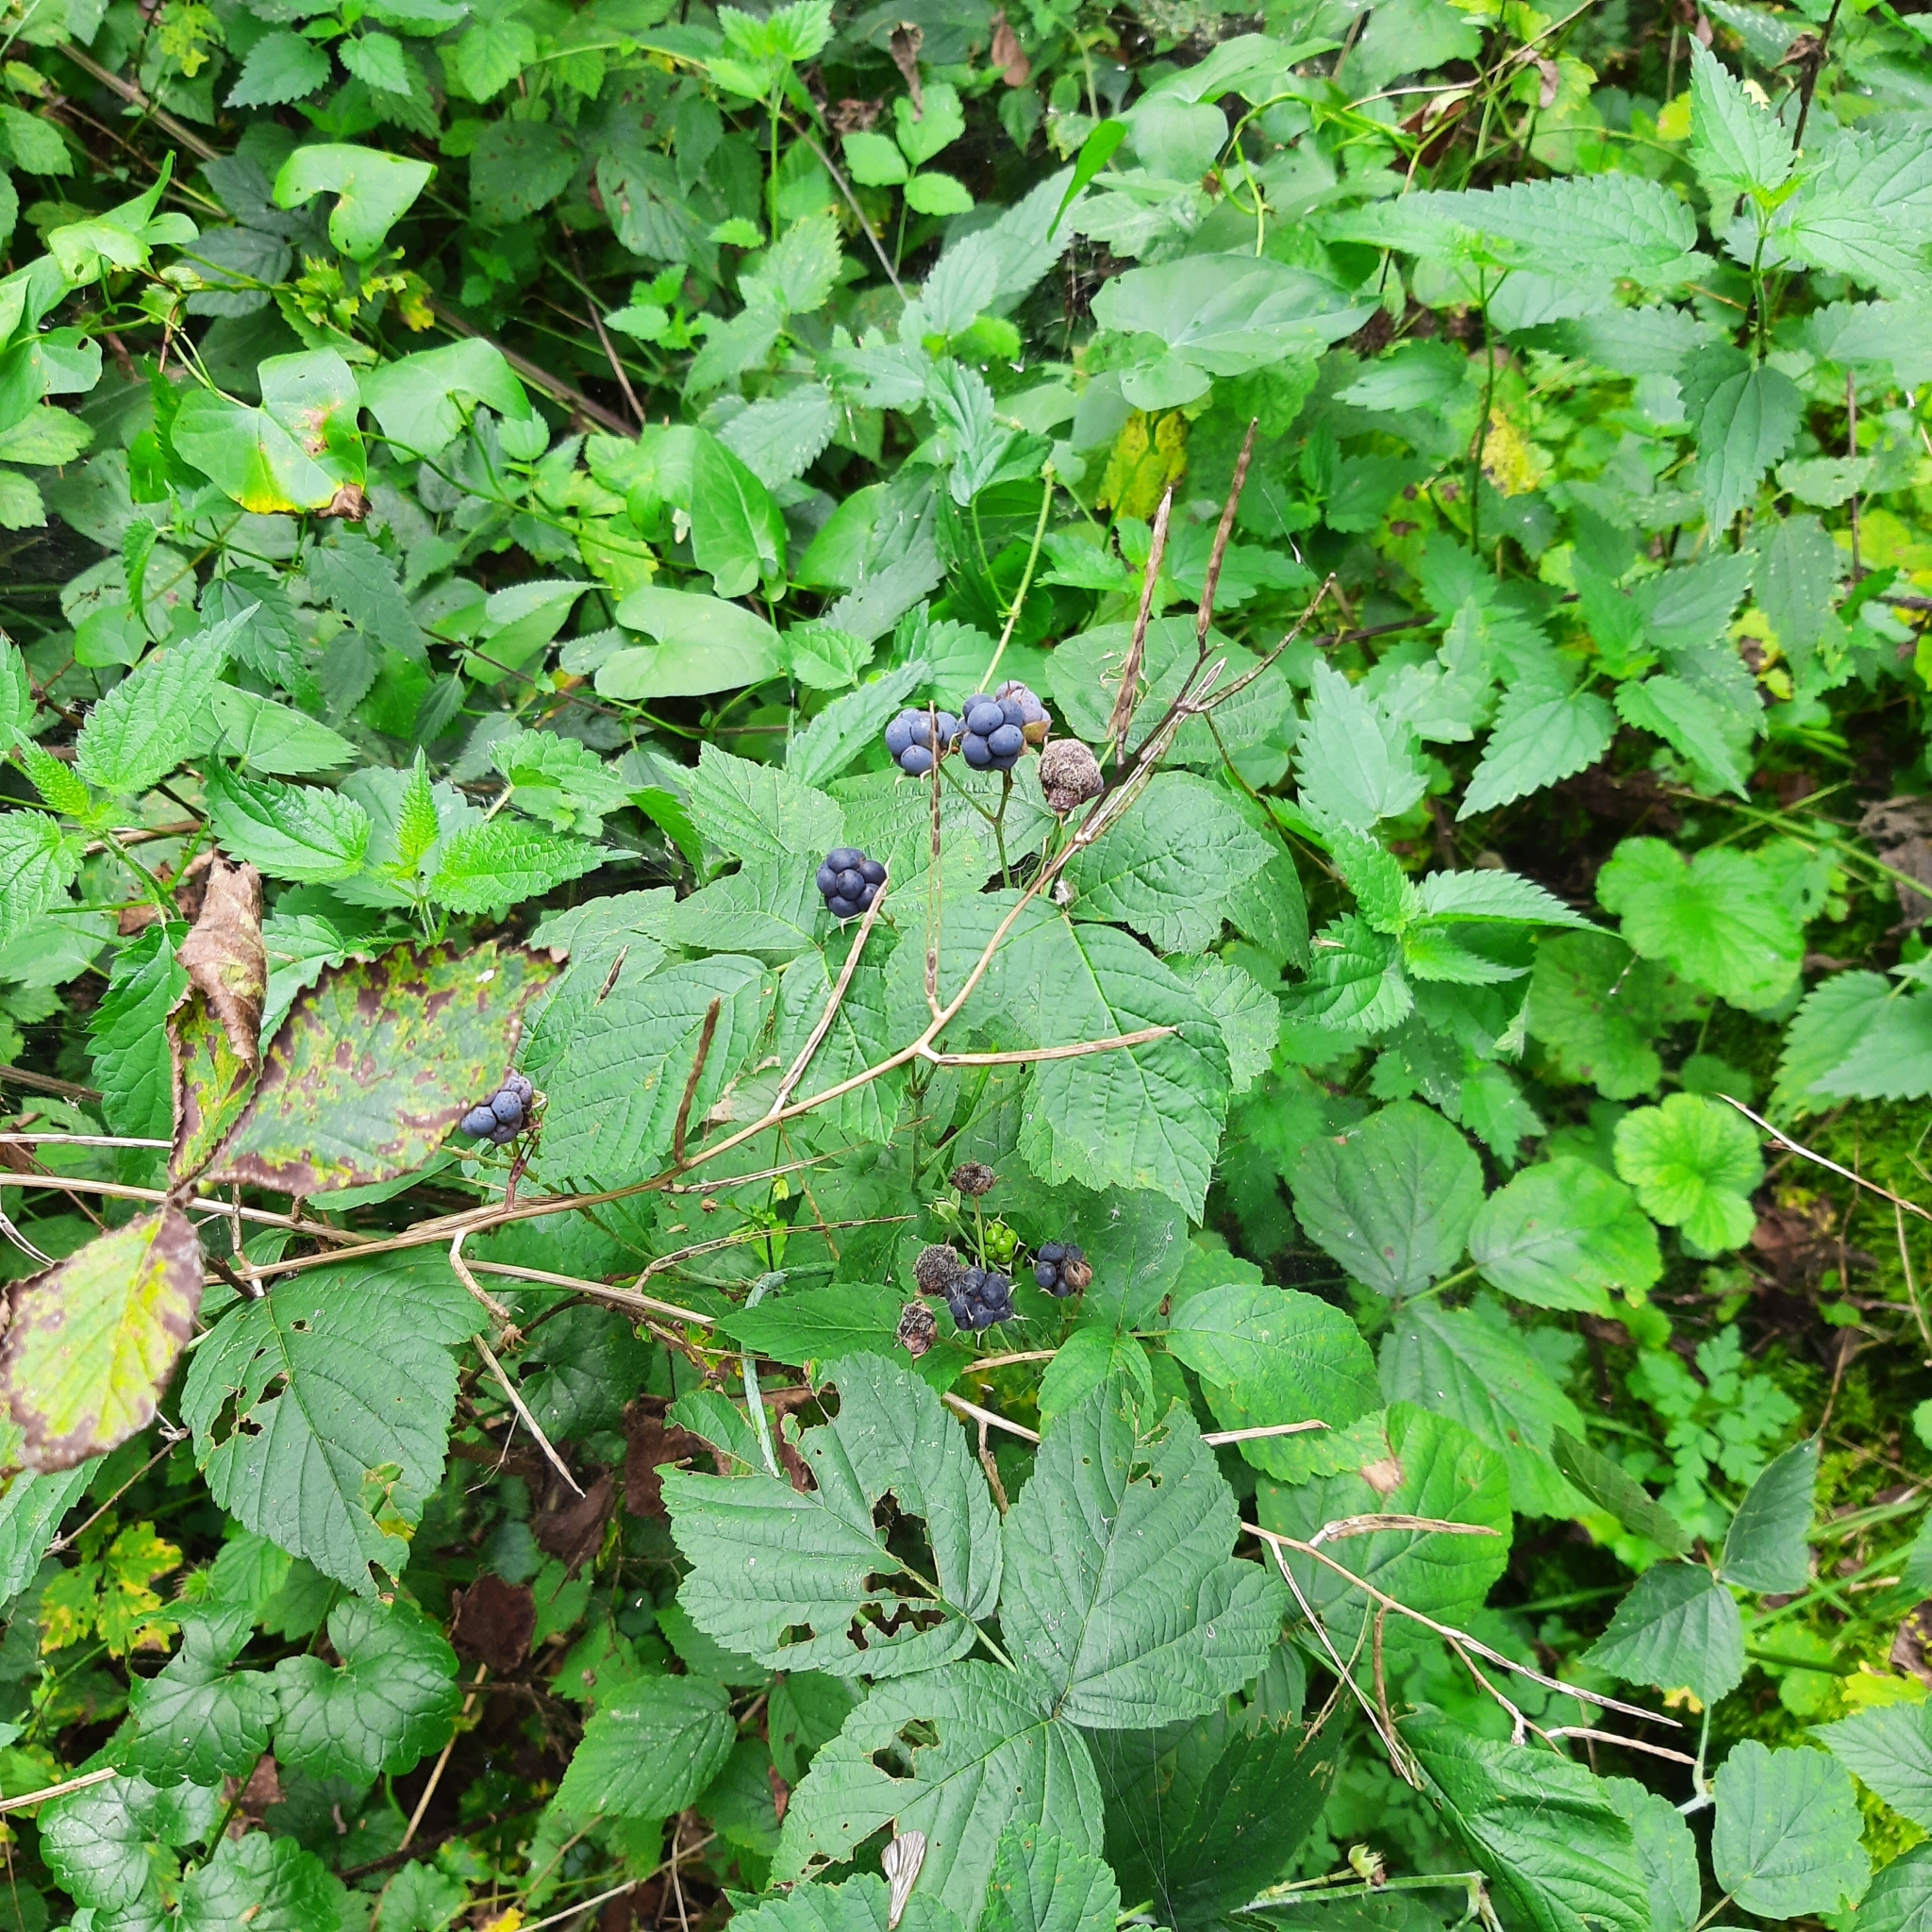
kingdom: Plantae
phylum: Tracheophyta
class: Magnoliopsida
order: Rosales
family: Rosaceae
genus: Rubus
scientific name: Rubus caesius
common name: Dewberry
